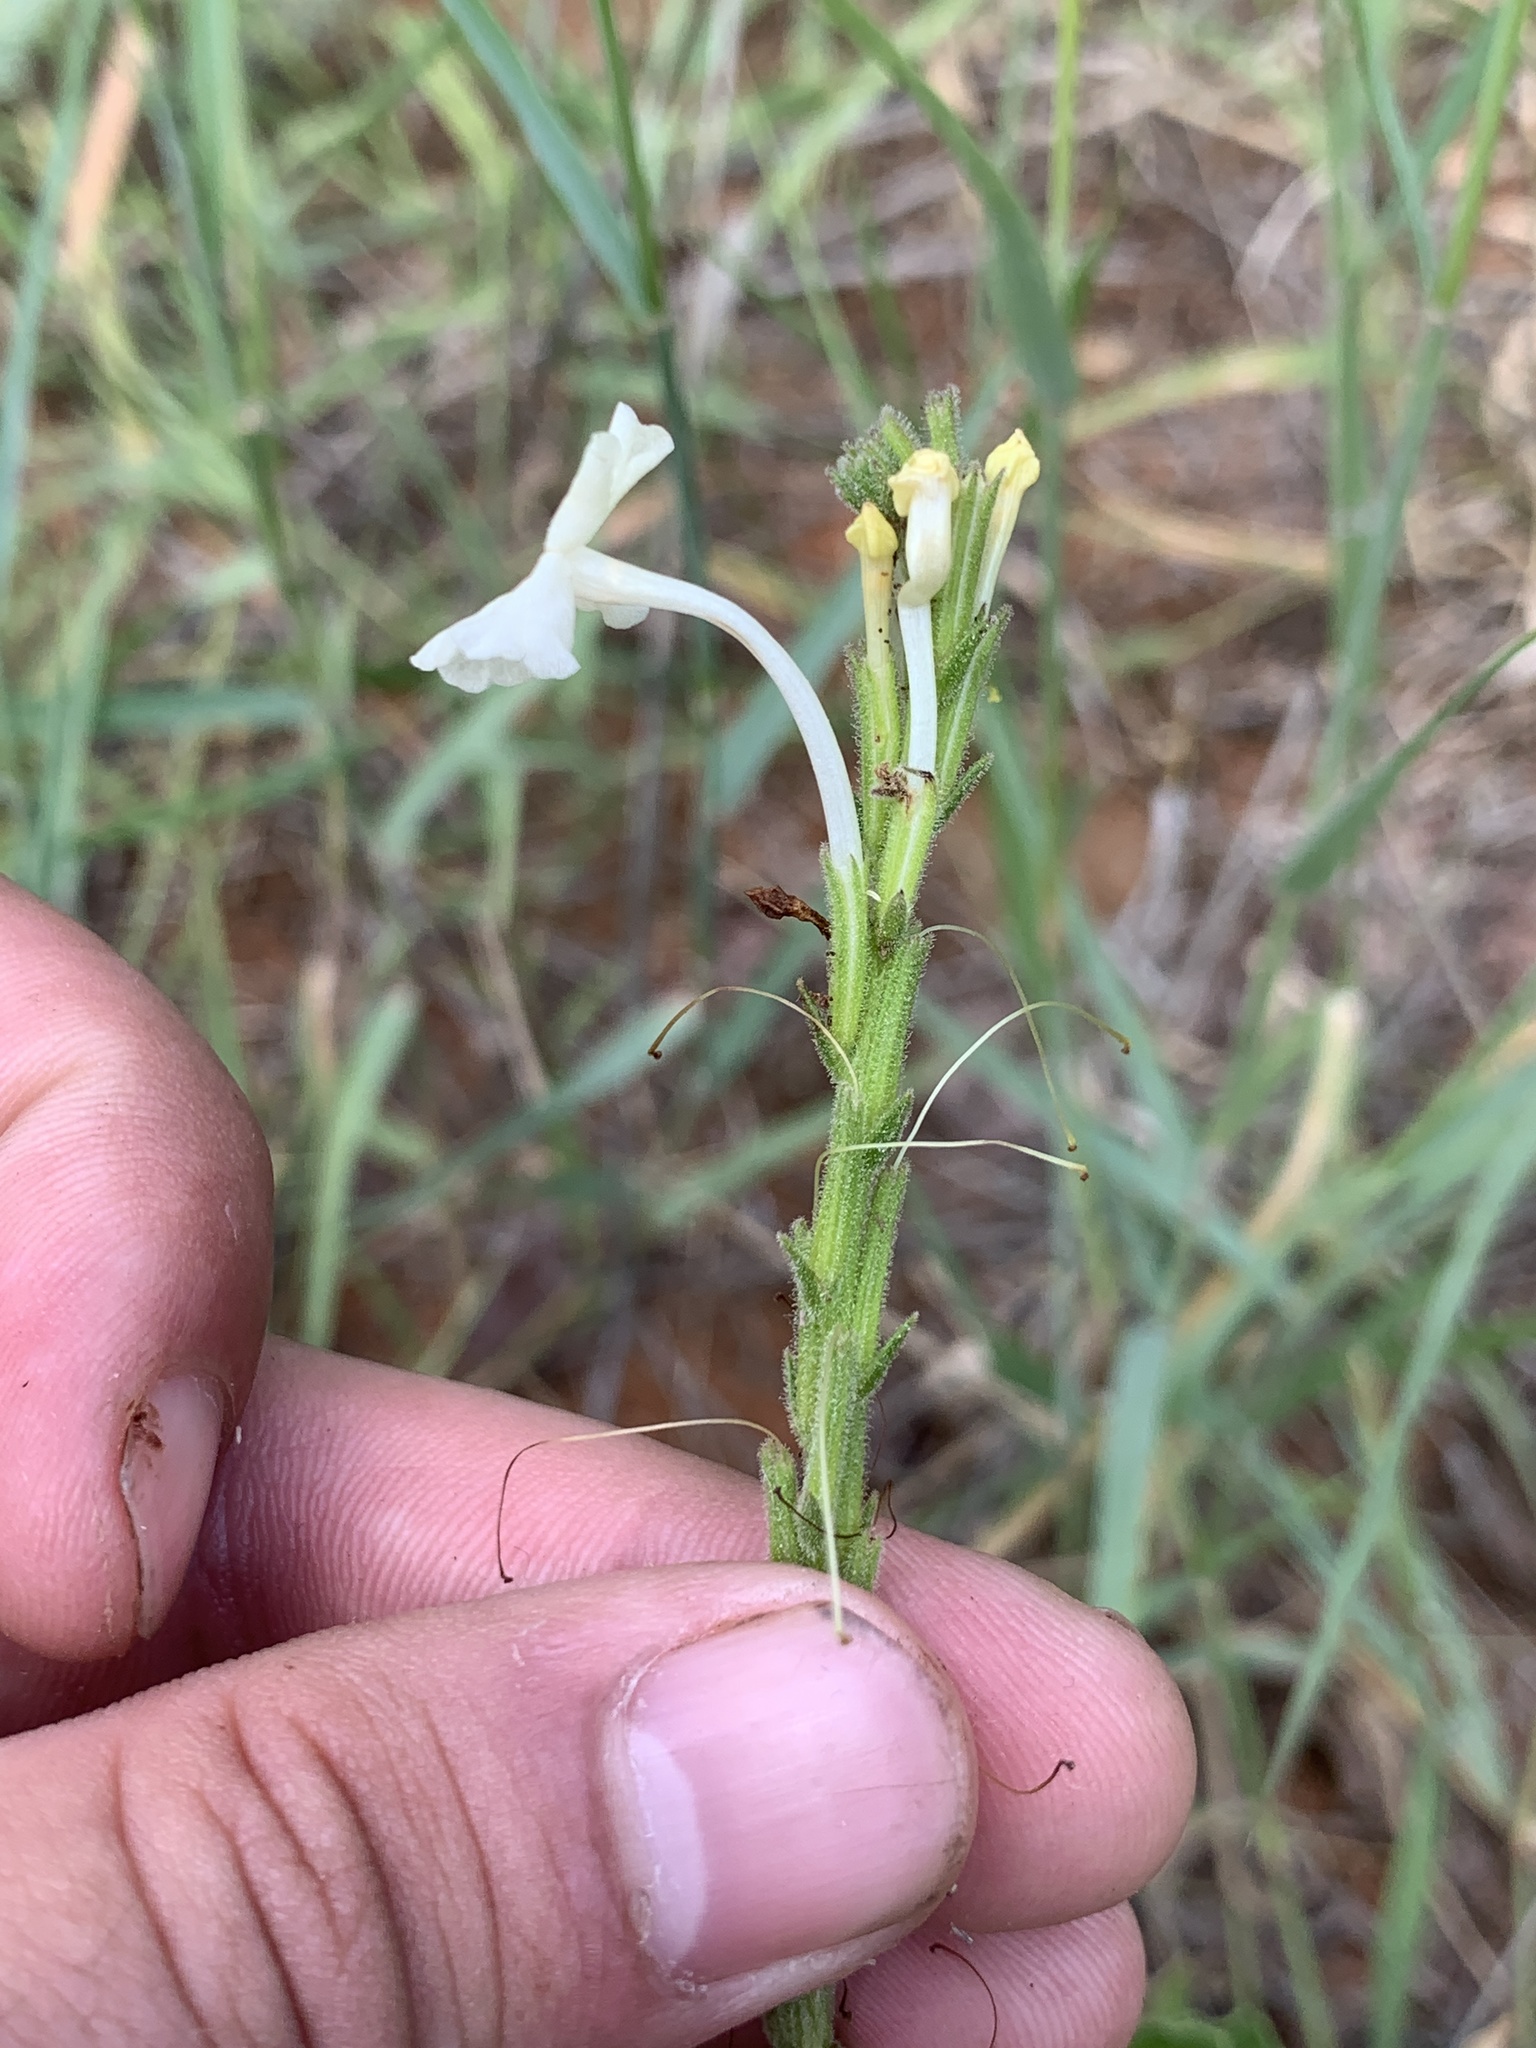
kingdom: Plantae
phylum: Tracheophyta
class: Magnoliopsida
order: Lamiales
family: Verbenaceae
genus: Chascanum
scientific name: Chascanum hederaceum
